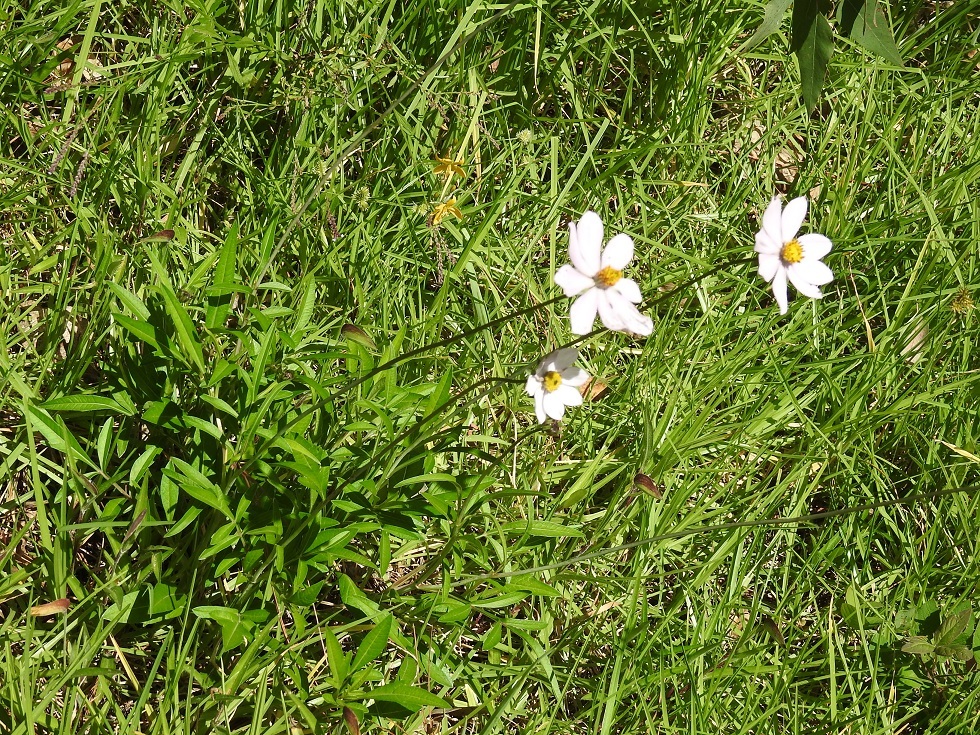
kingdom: Plantae
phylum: Tracheophyta
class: Magnoliopsida
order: Asterales
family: Asteraceae
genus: Cosmos
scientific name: Cosmos diversifolius
